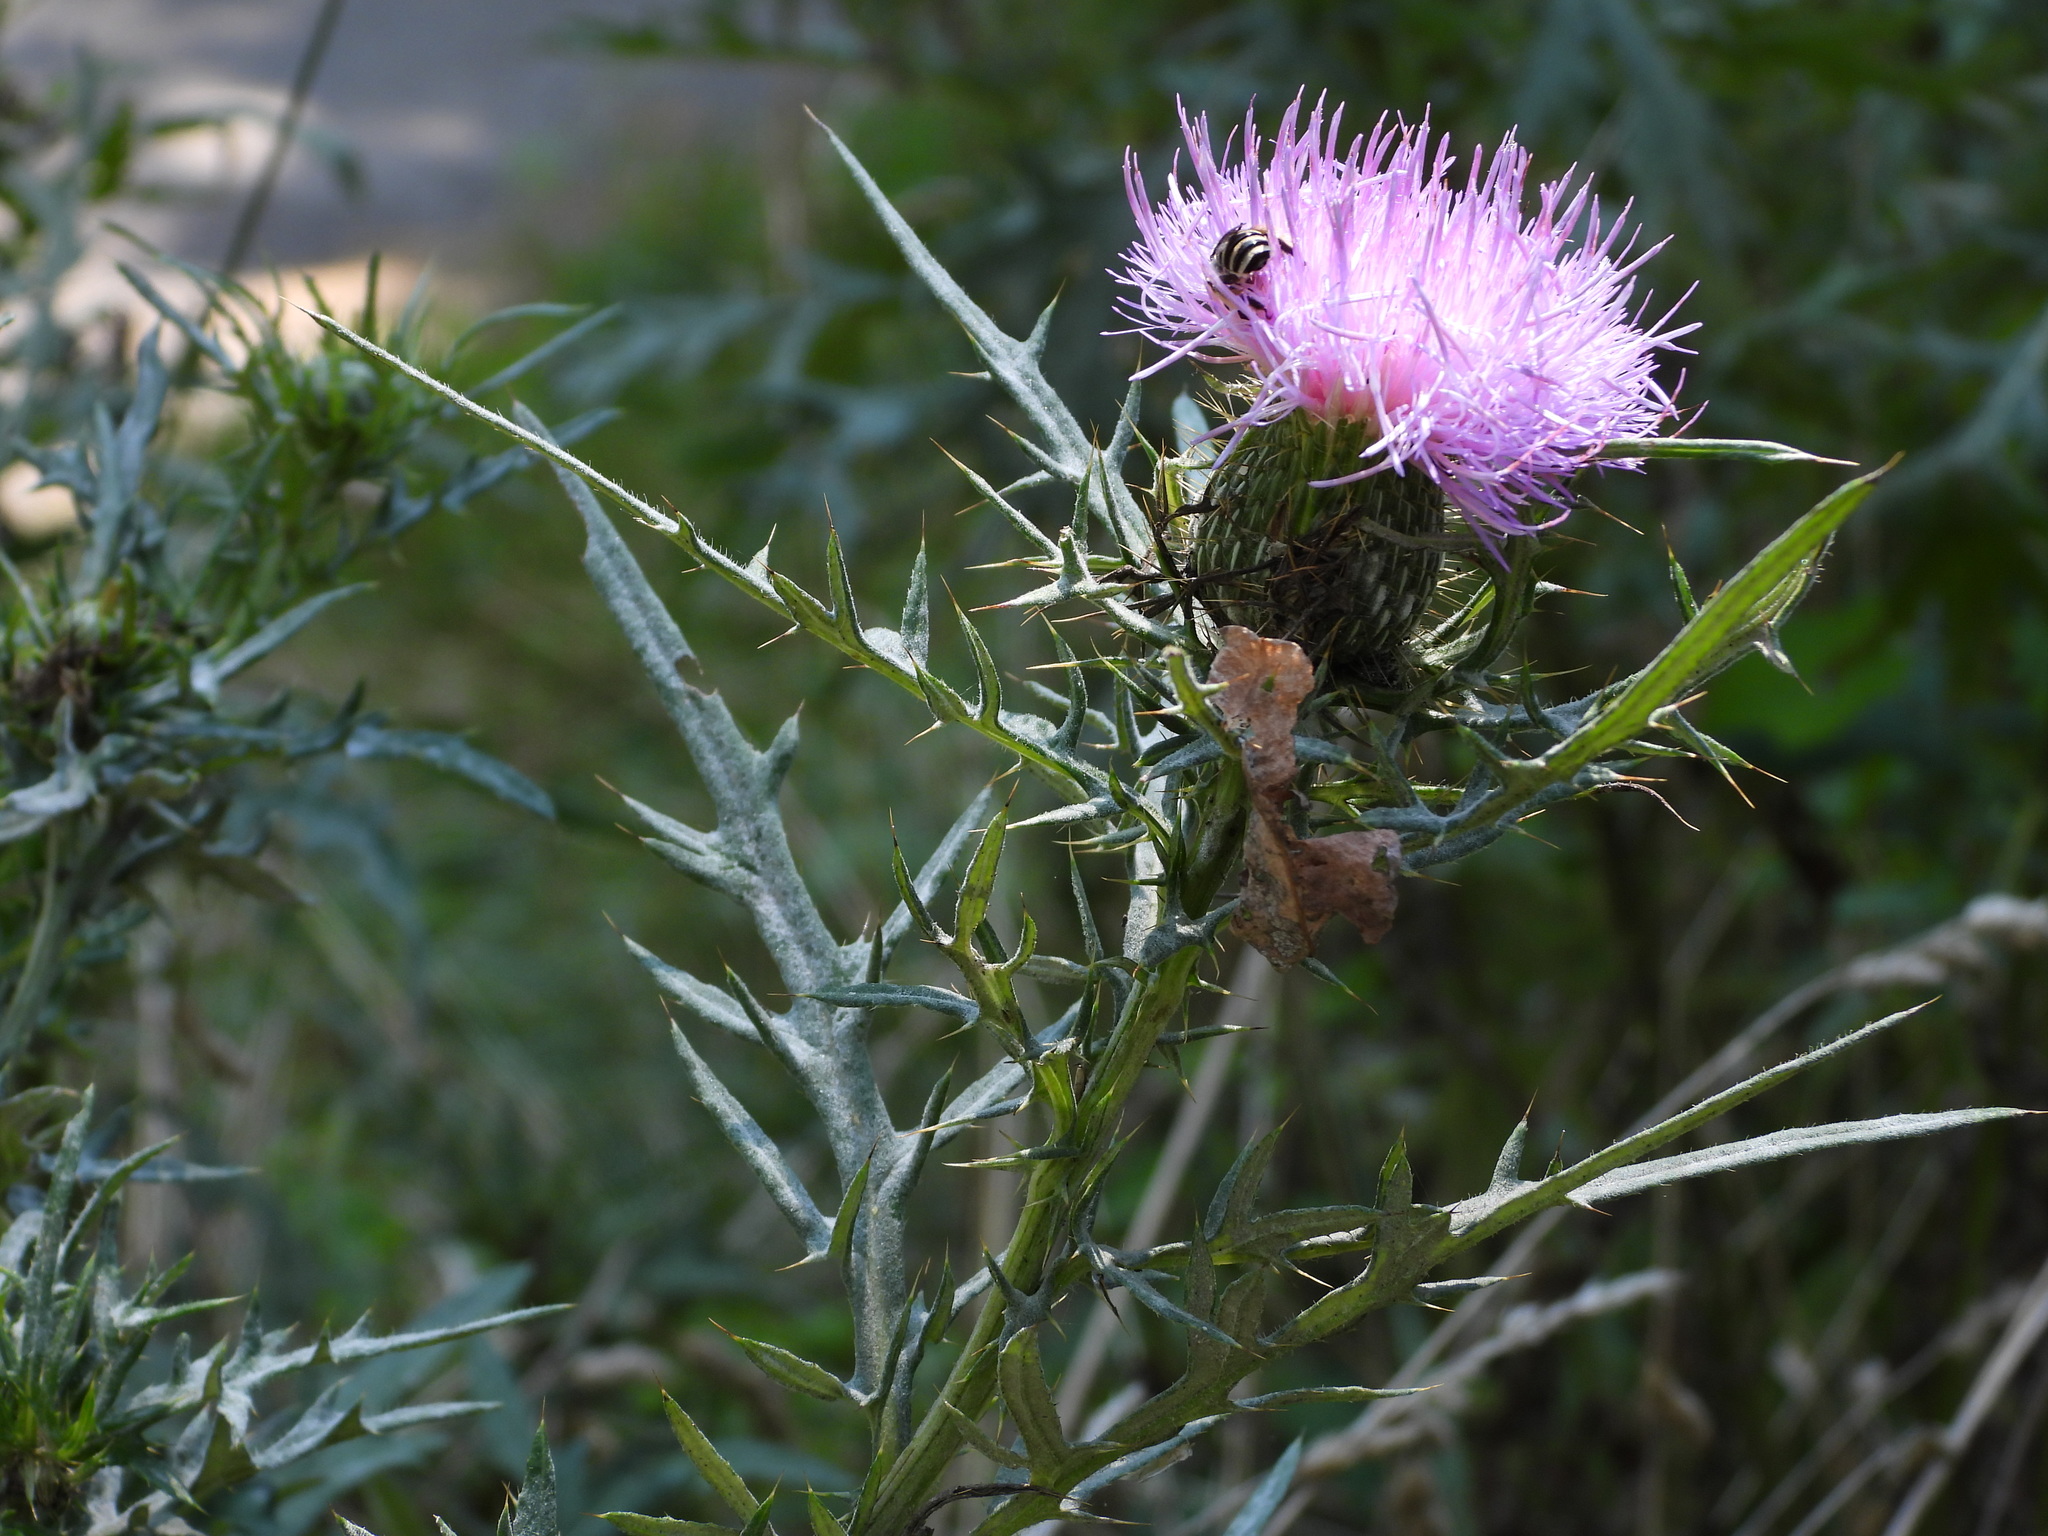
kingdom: Plantae
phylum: Tracheophyta
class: Magnoliopsida
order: Asterales
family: Asteraceae
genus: Cirsium
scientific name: Cirsium discolor
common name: Field thistle
